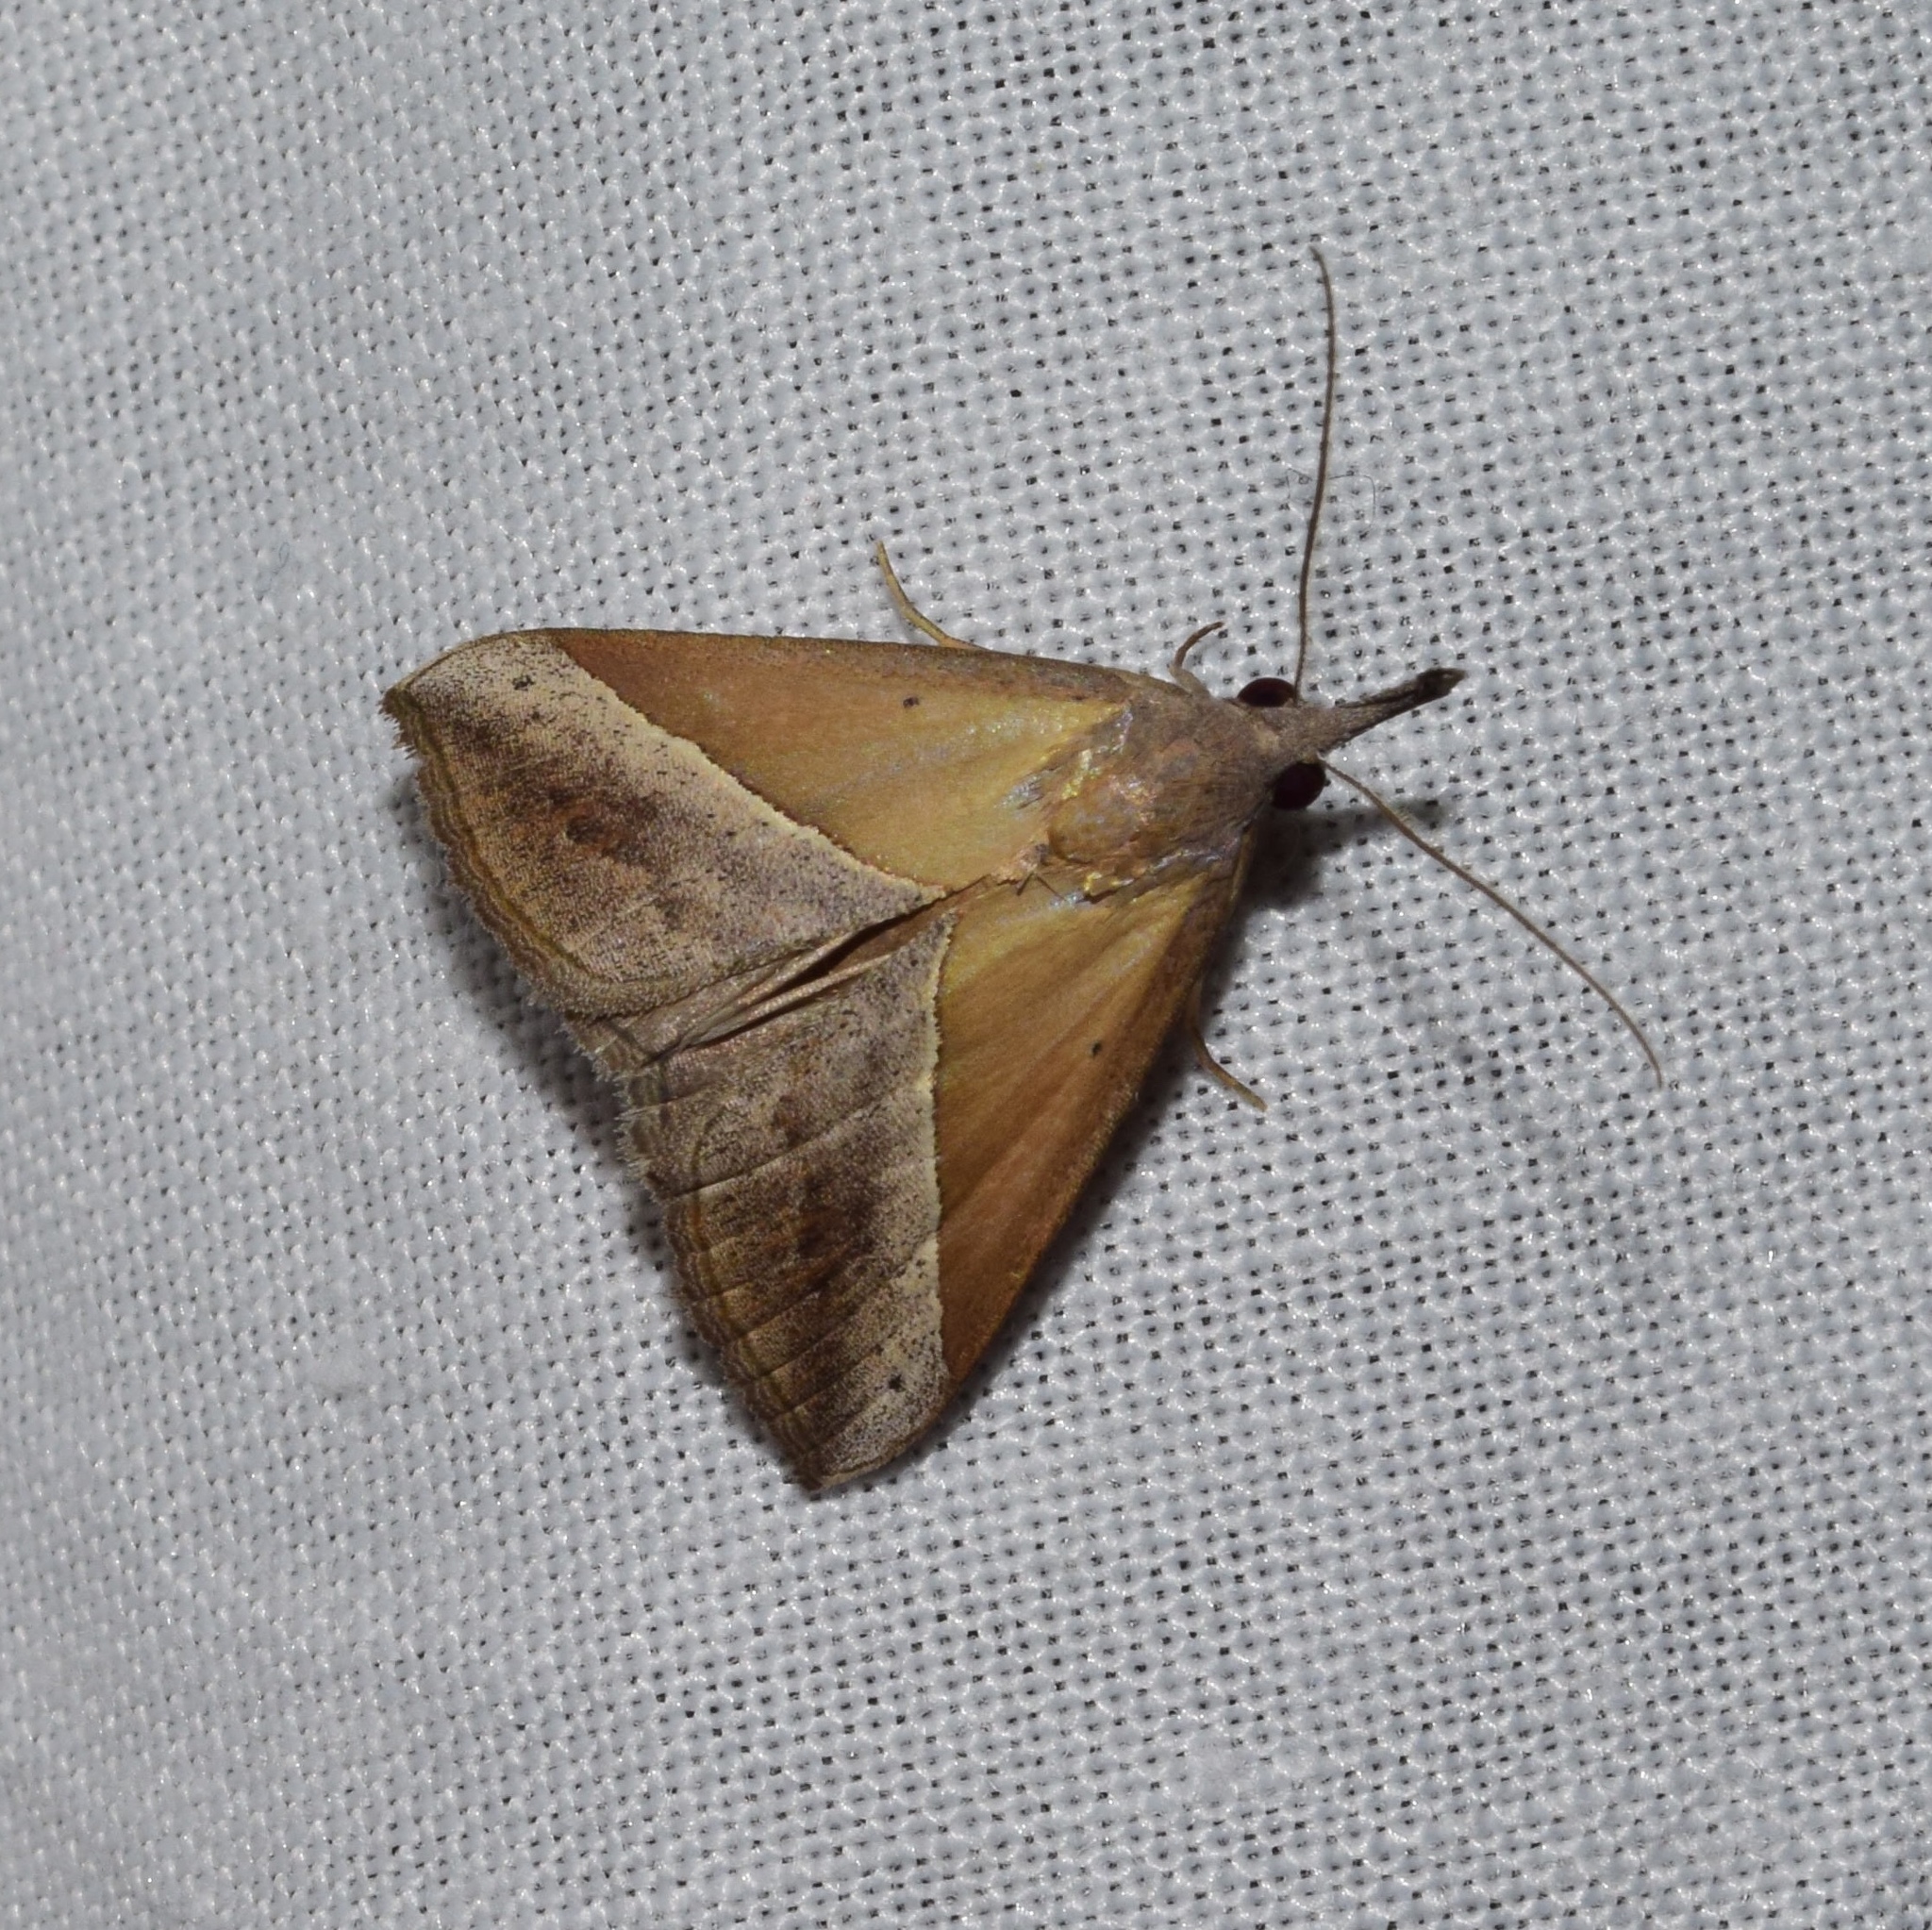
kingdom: Animalia
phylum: Arthropoda
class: Insecta
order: Lepidoptera
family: Erebidae
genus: Hypena
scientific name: Hypena laetalis
